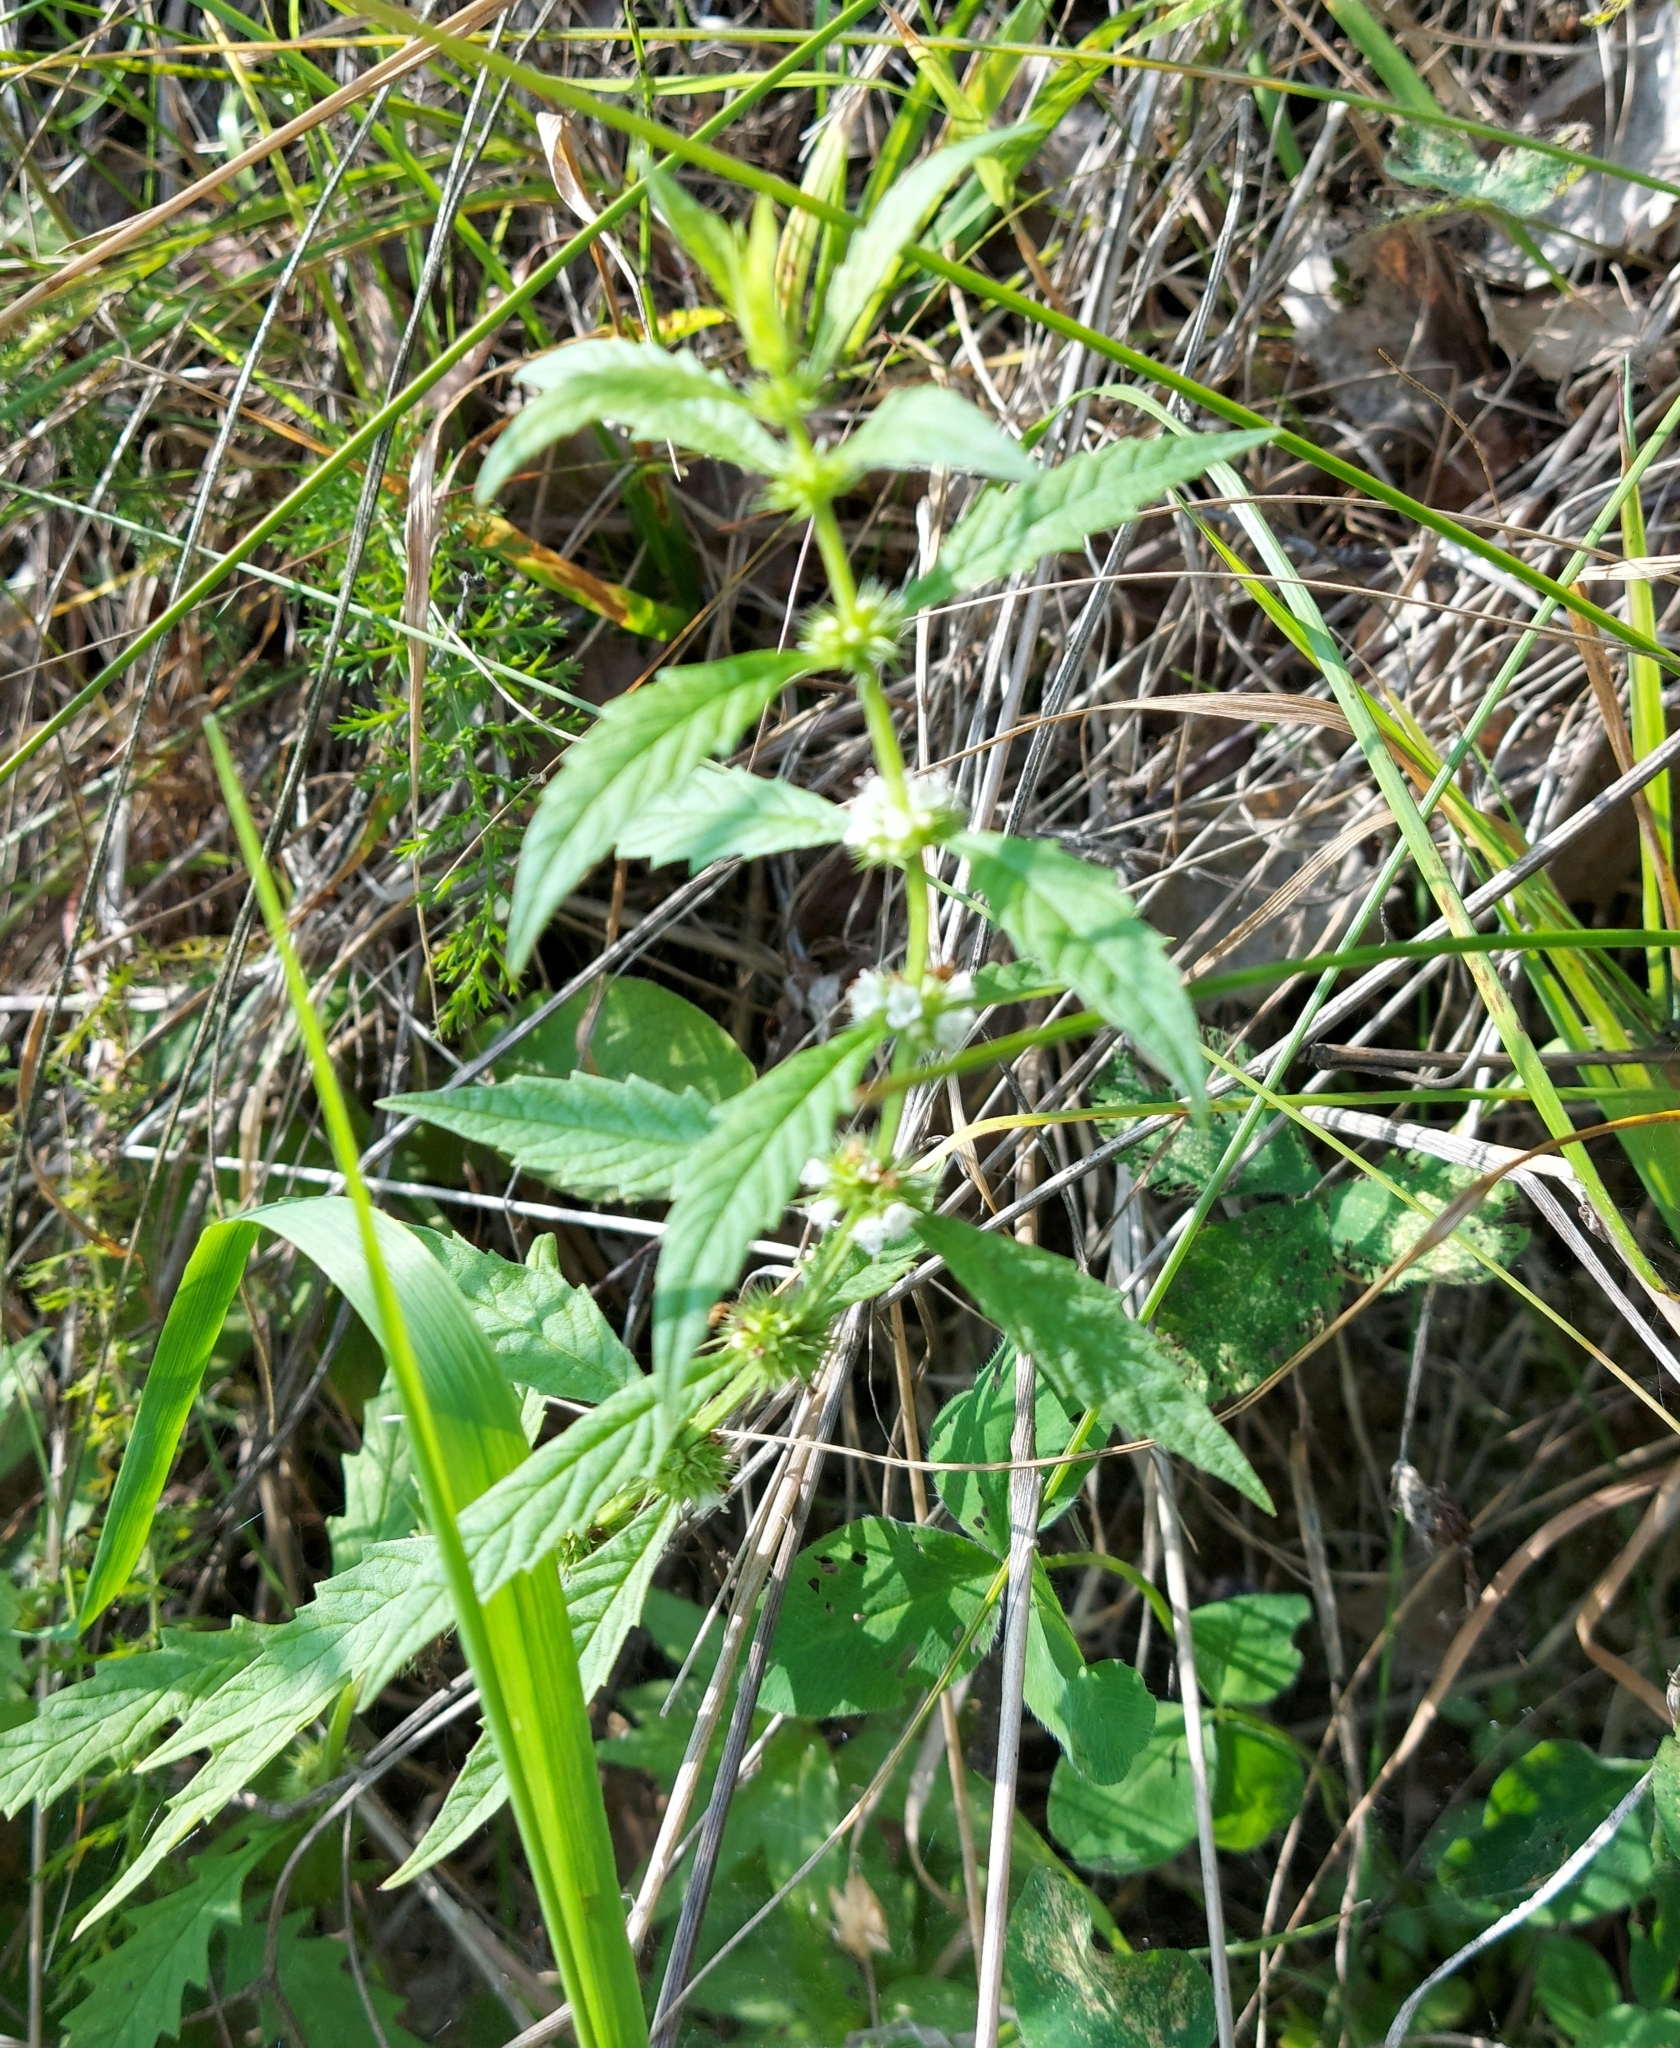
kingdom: Plantae
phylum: Tracheophyta
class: Magnoliopsida
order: Lamiales
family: Lamiaceae
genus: Lycopus
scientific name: Lycopus europaeus
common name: European bugleweed
